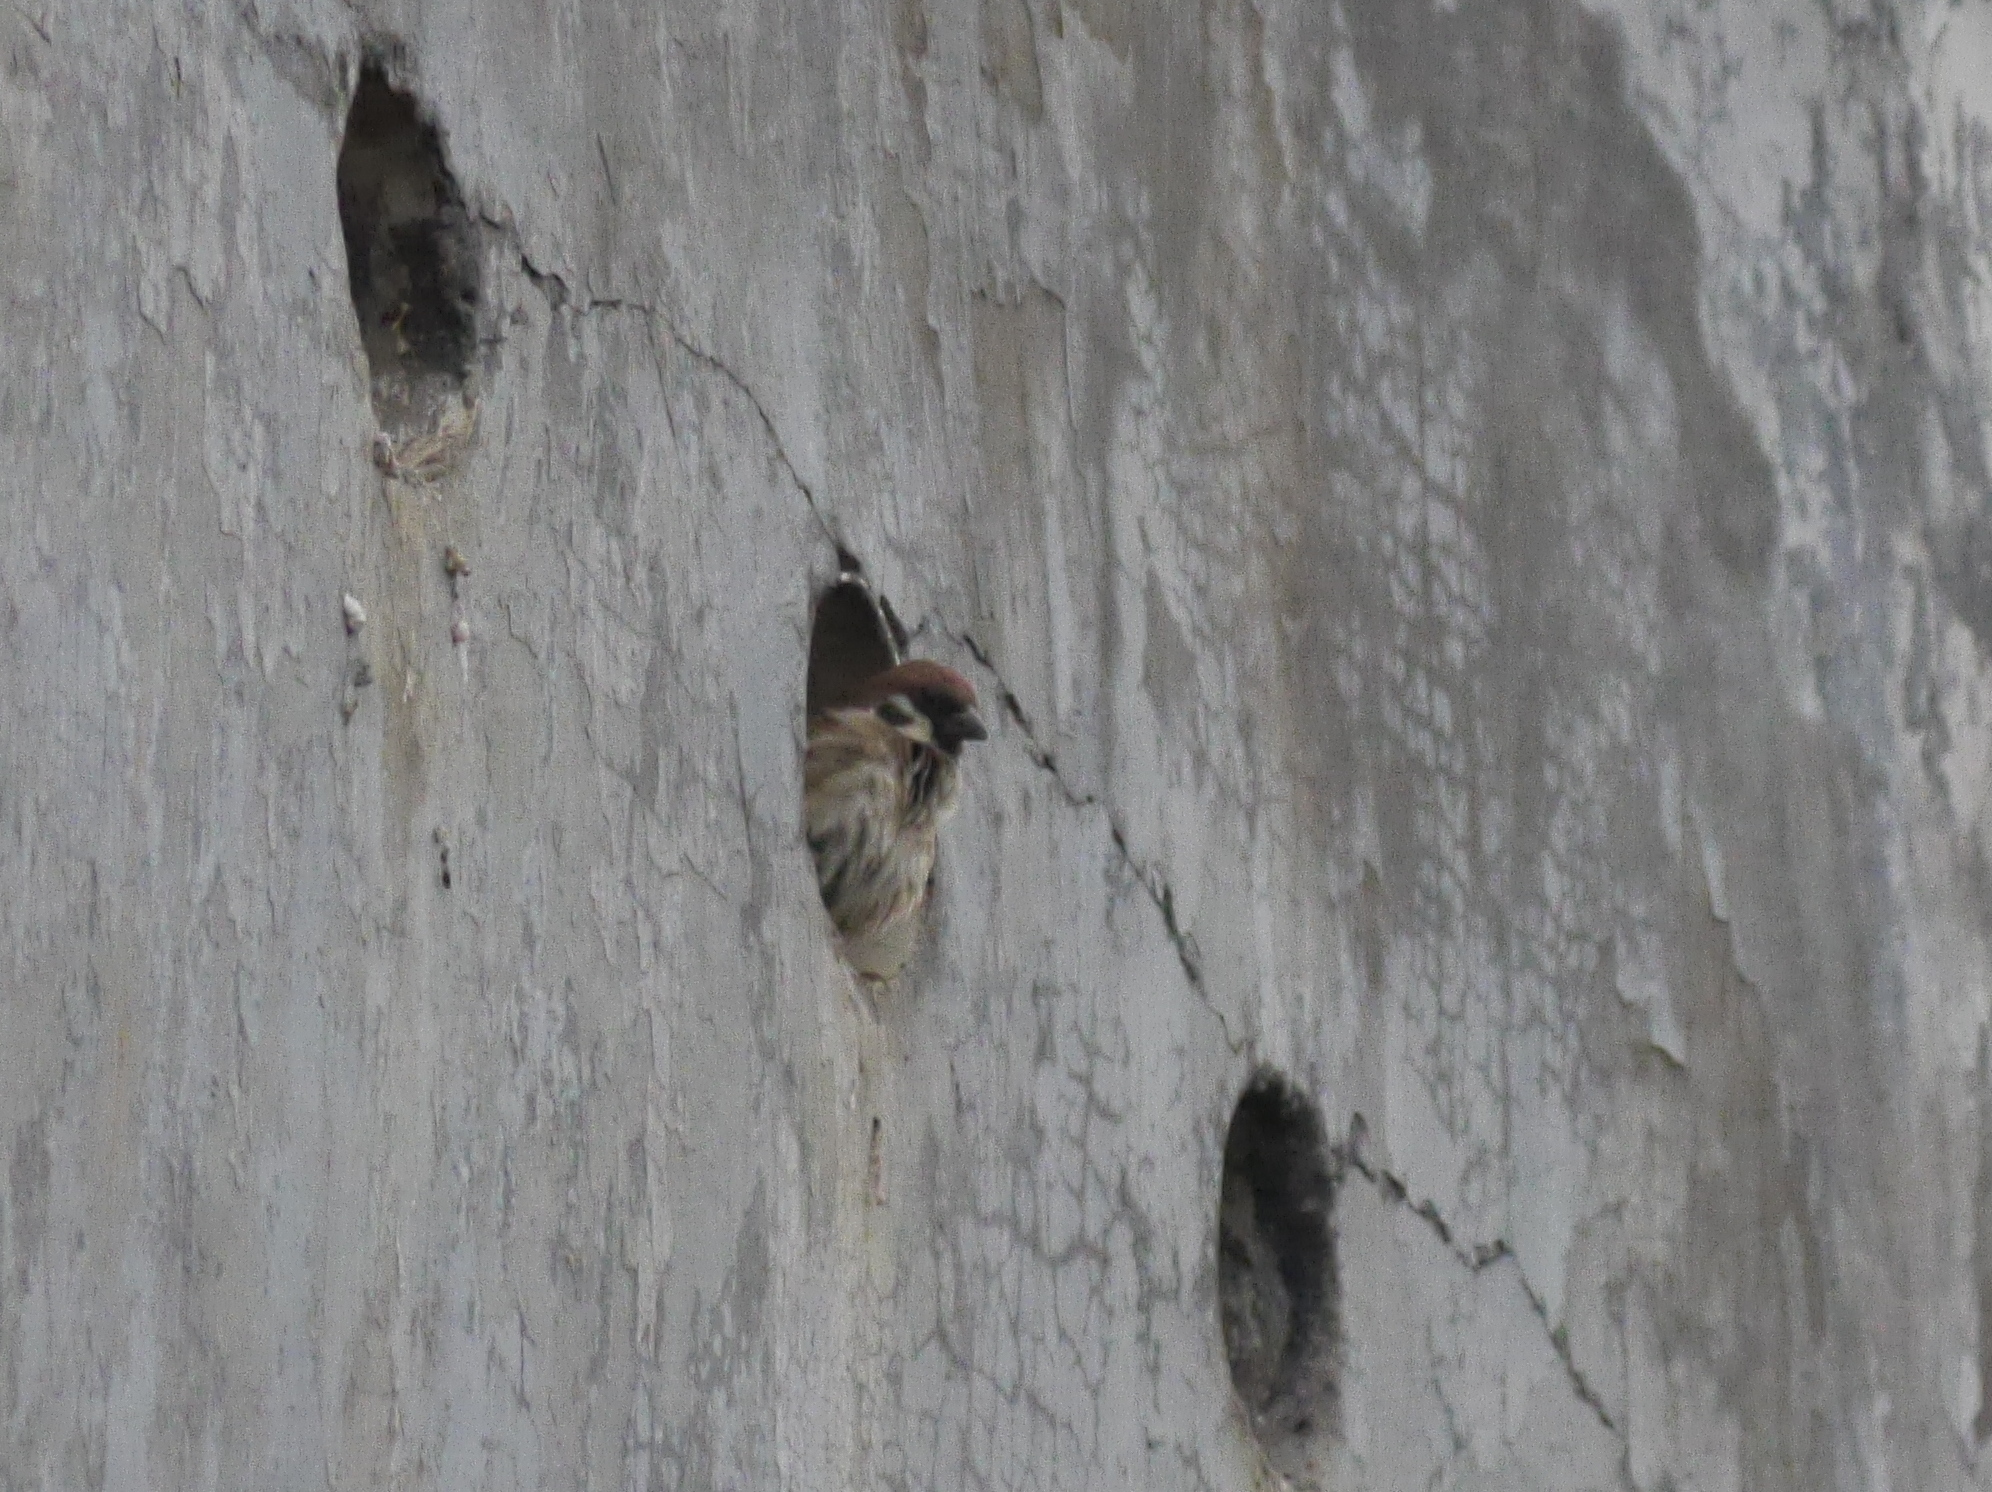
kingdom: Animalia
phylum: Chordata
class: Aves
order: Passeriformes
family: Passeridae
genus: Passer
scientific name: Passer montanus
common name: Eurasian tree sparrow
